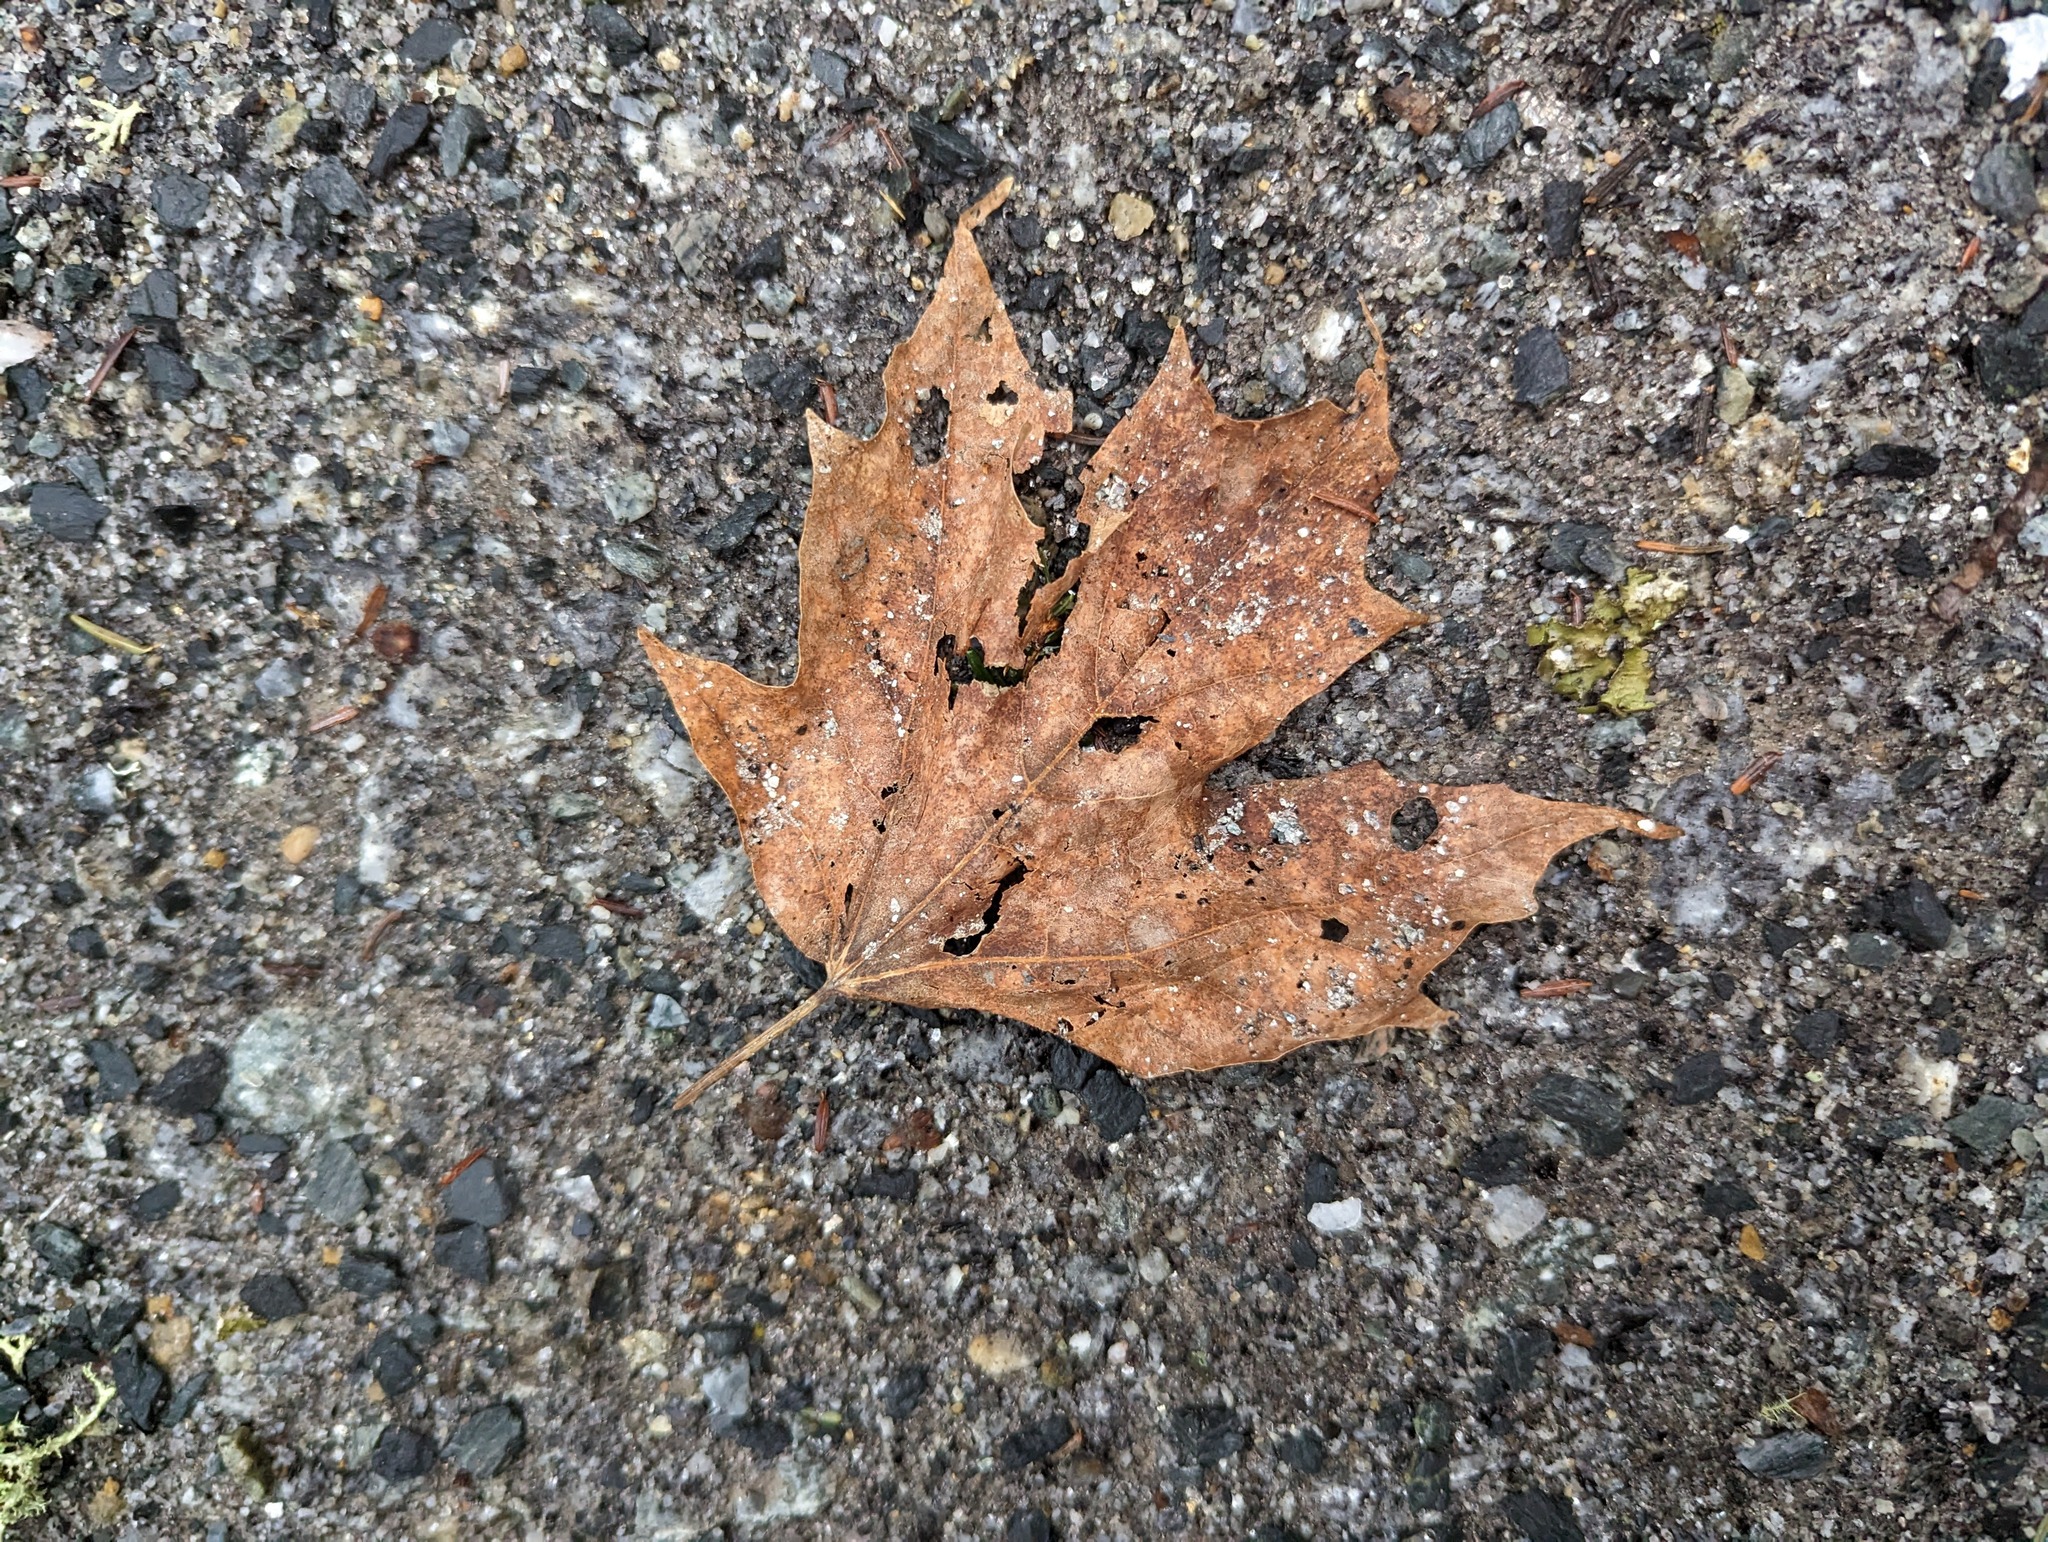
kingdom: Plantae
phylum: Tracheophyta
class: Magnoliopsida
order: Sapindales
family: Sapindaceae
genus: Acer
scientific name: Acer saccharum
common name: Sugar maple
